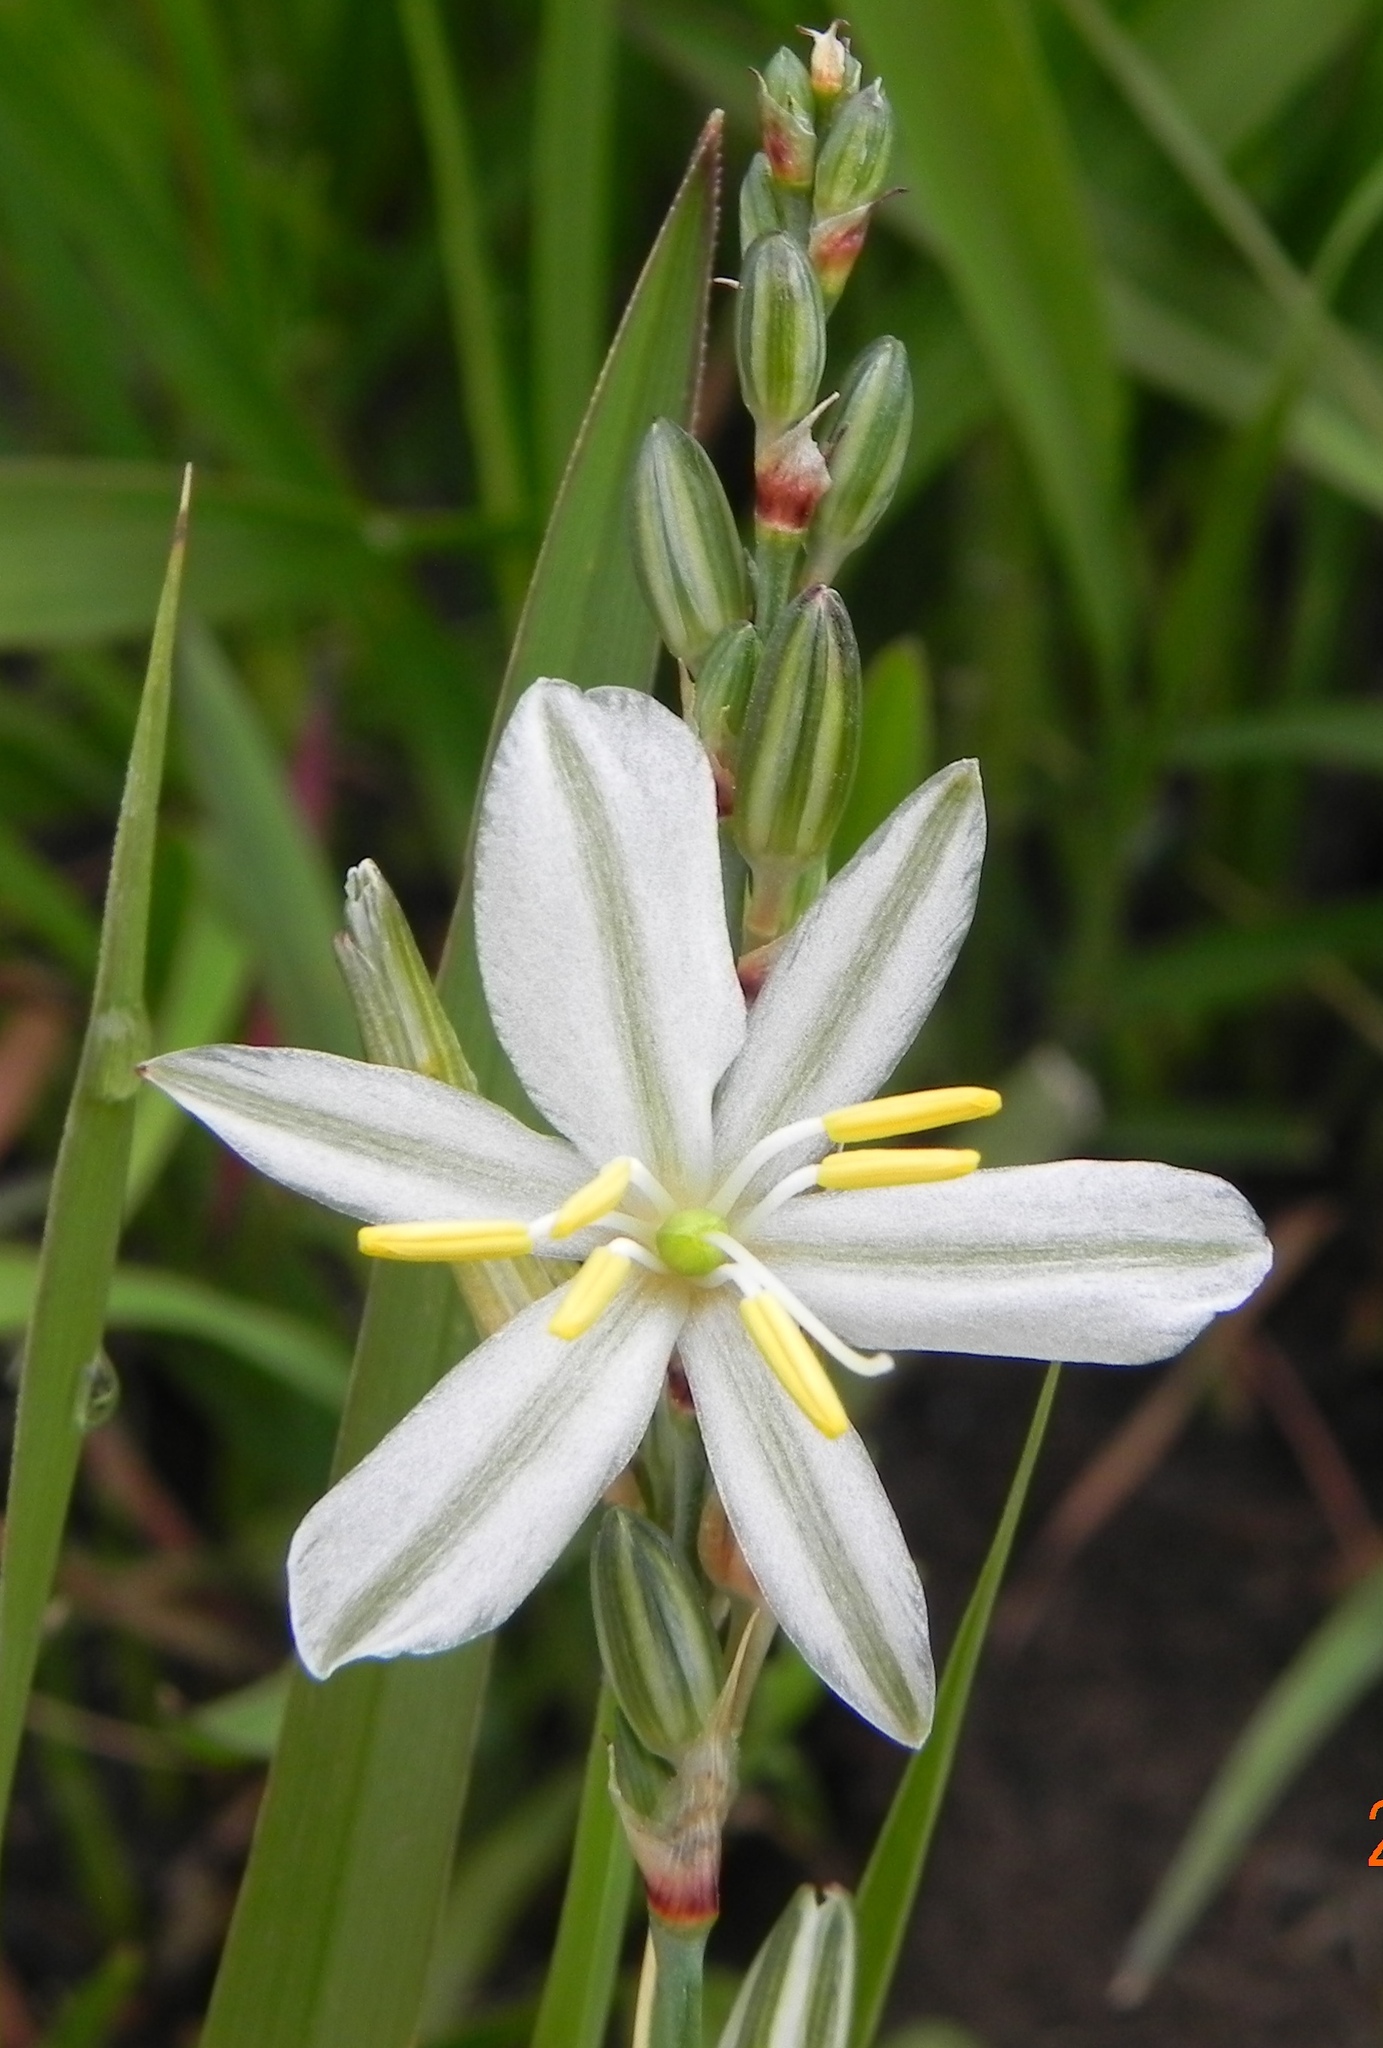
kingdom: Plantae
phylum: Tracheophyta
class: Liliopsida
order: Asparagales
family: Asparagaceae
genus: Chlorophytum
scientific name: Chlorophytum cooperi
